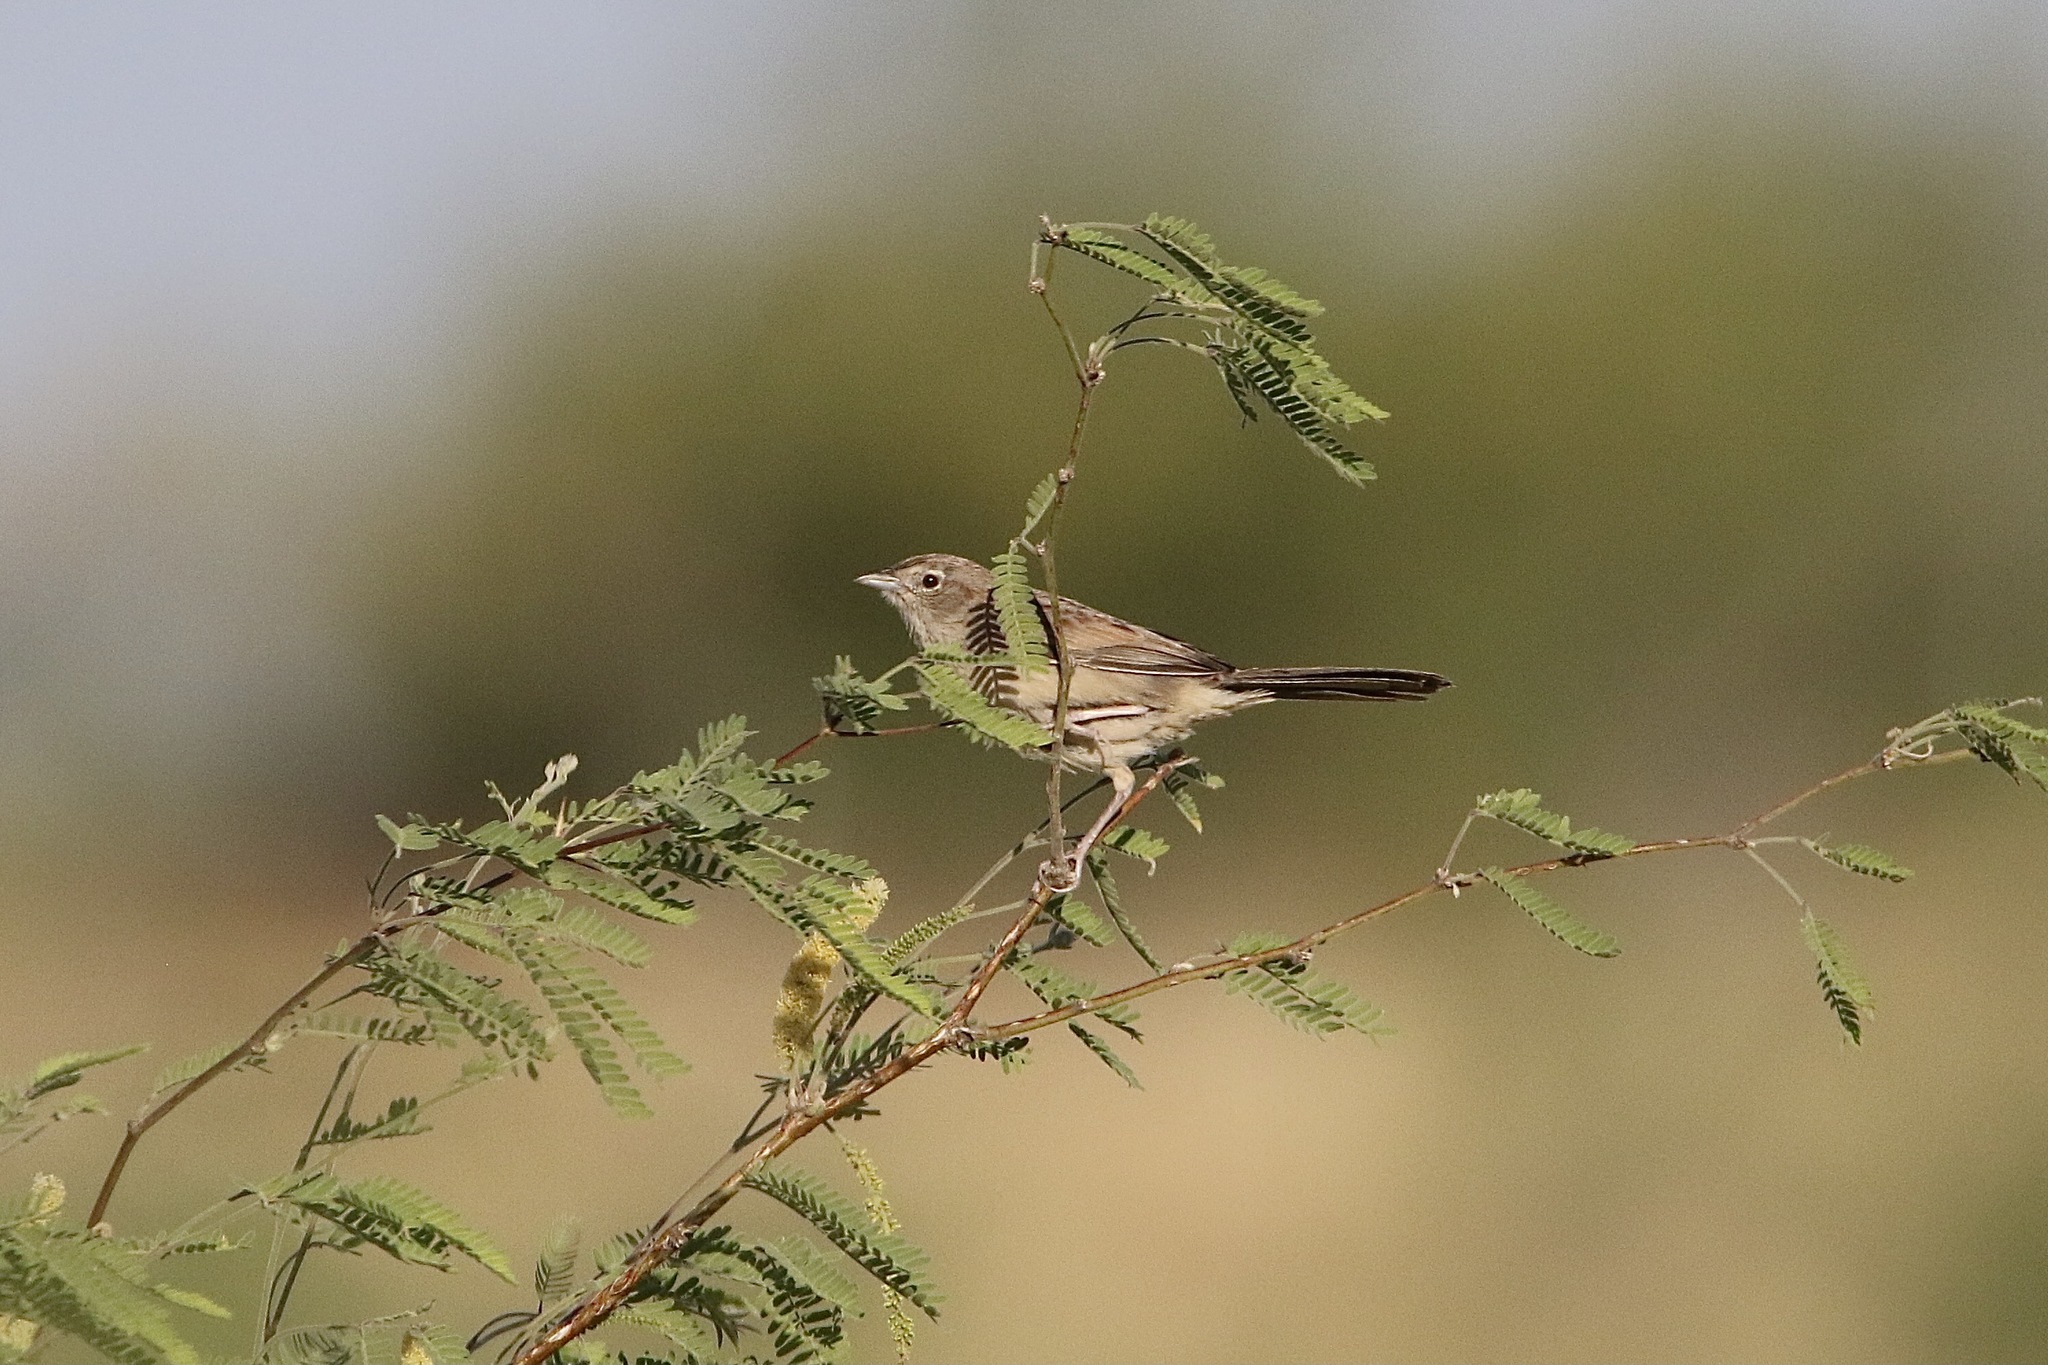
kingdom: Animalia
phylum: Chordata
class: Aves
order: Passeriformes
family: Passerellidae
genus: Peucaea
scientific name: Peucaea botterii
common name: Botteri's sparrow
